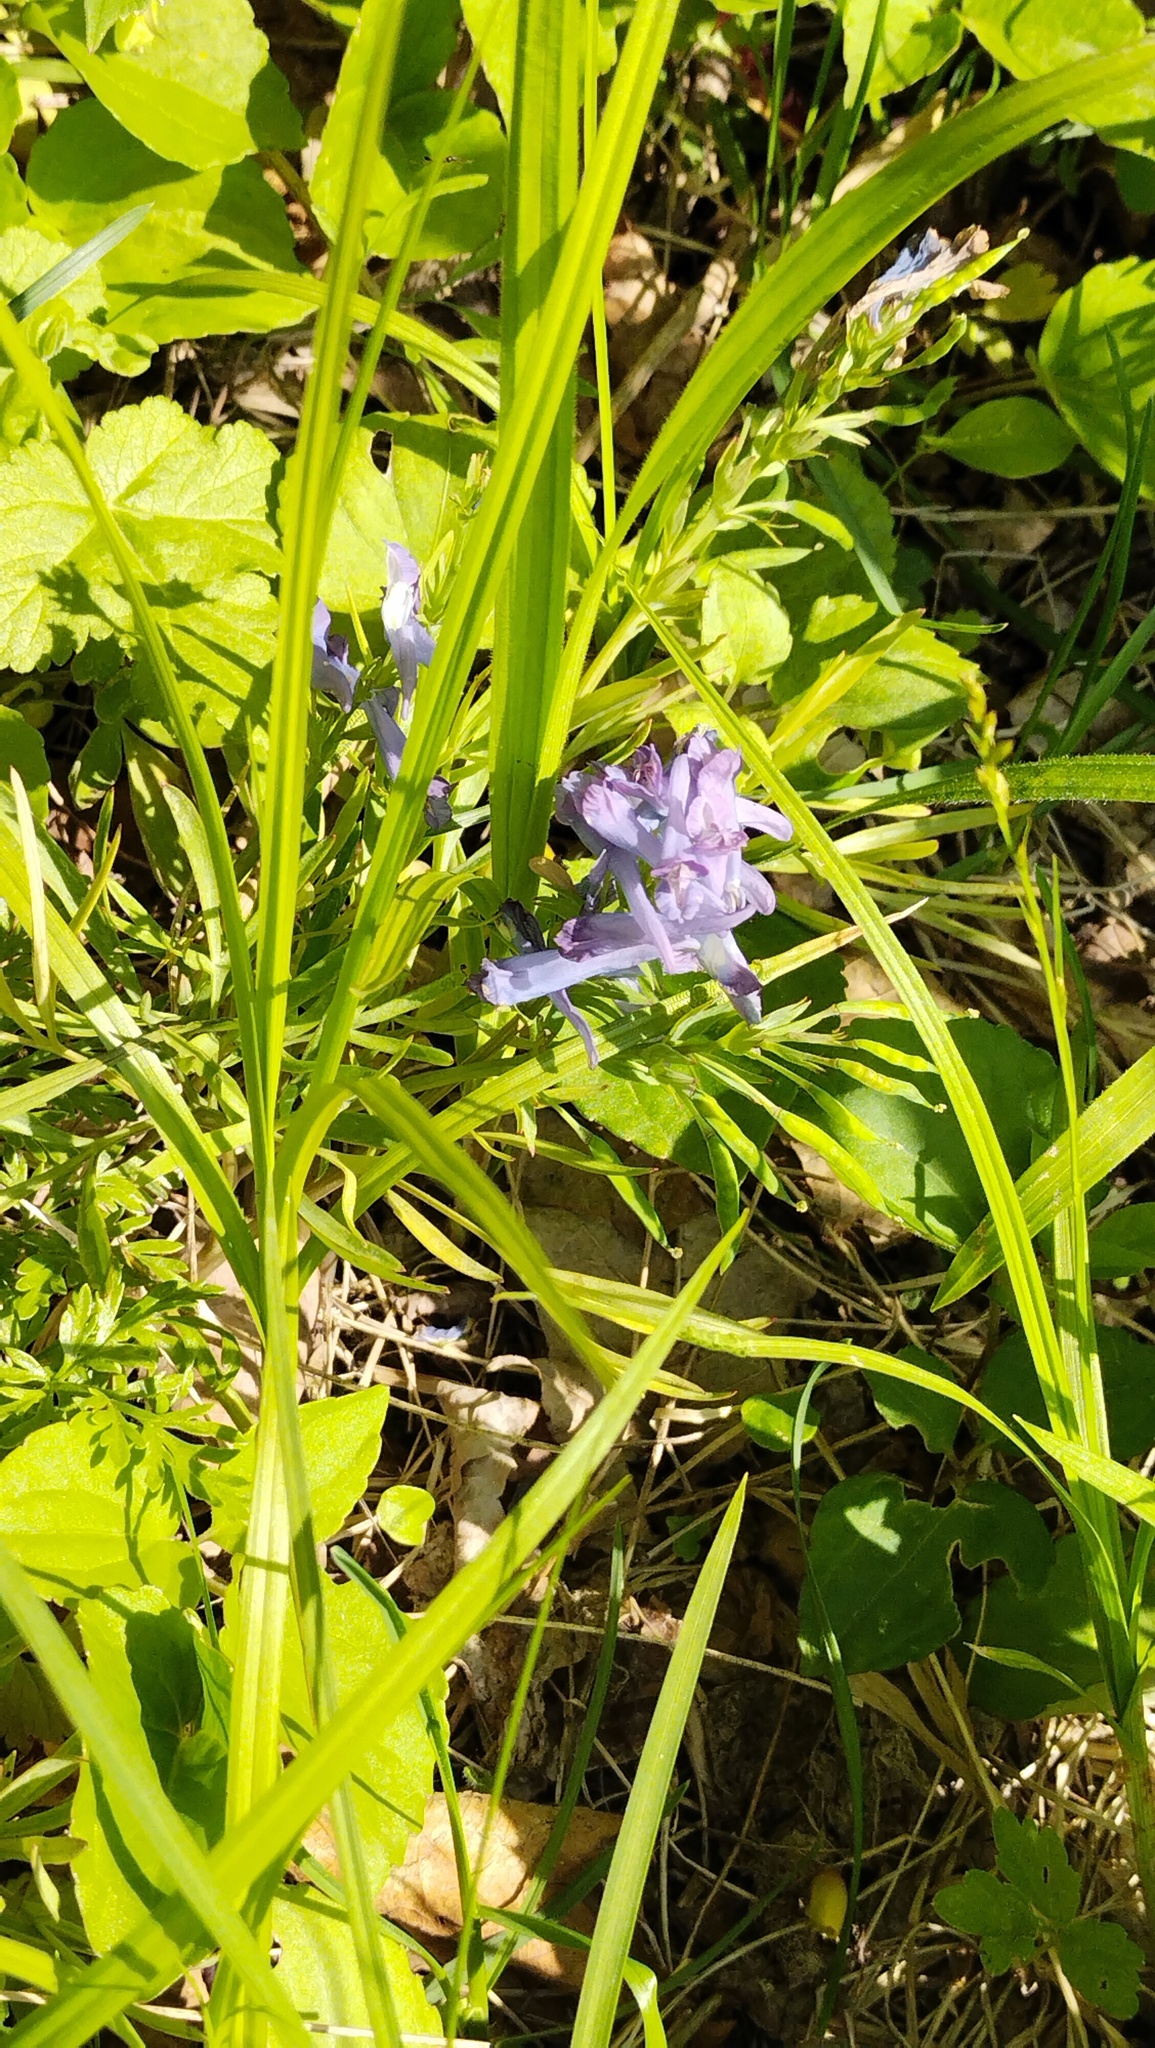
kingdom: Plantae
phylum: Tracheophyta
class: Magnoliopsida
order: Ranunculales
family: Papaveraceae
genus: Corydalis
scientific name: Corydalis turtschaninovii
